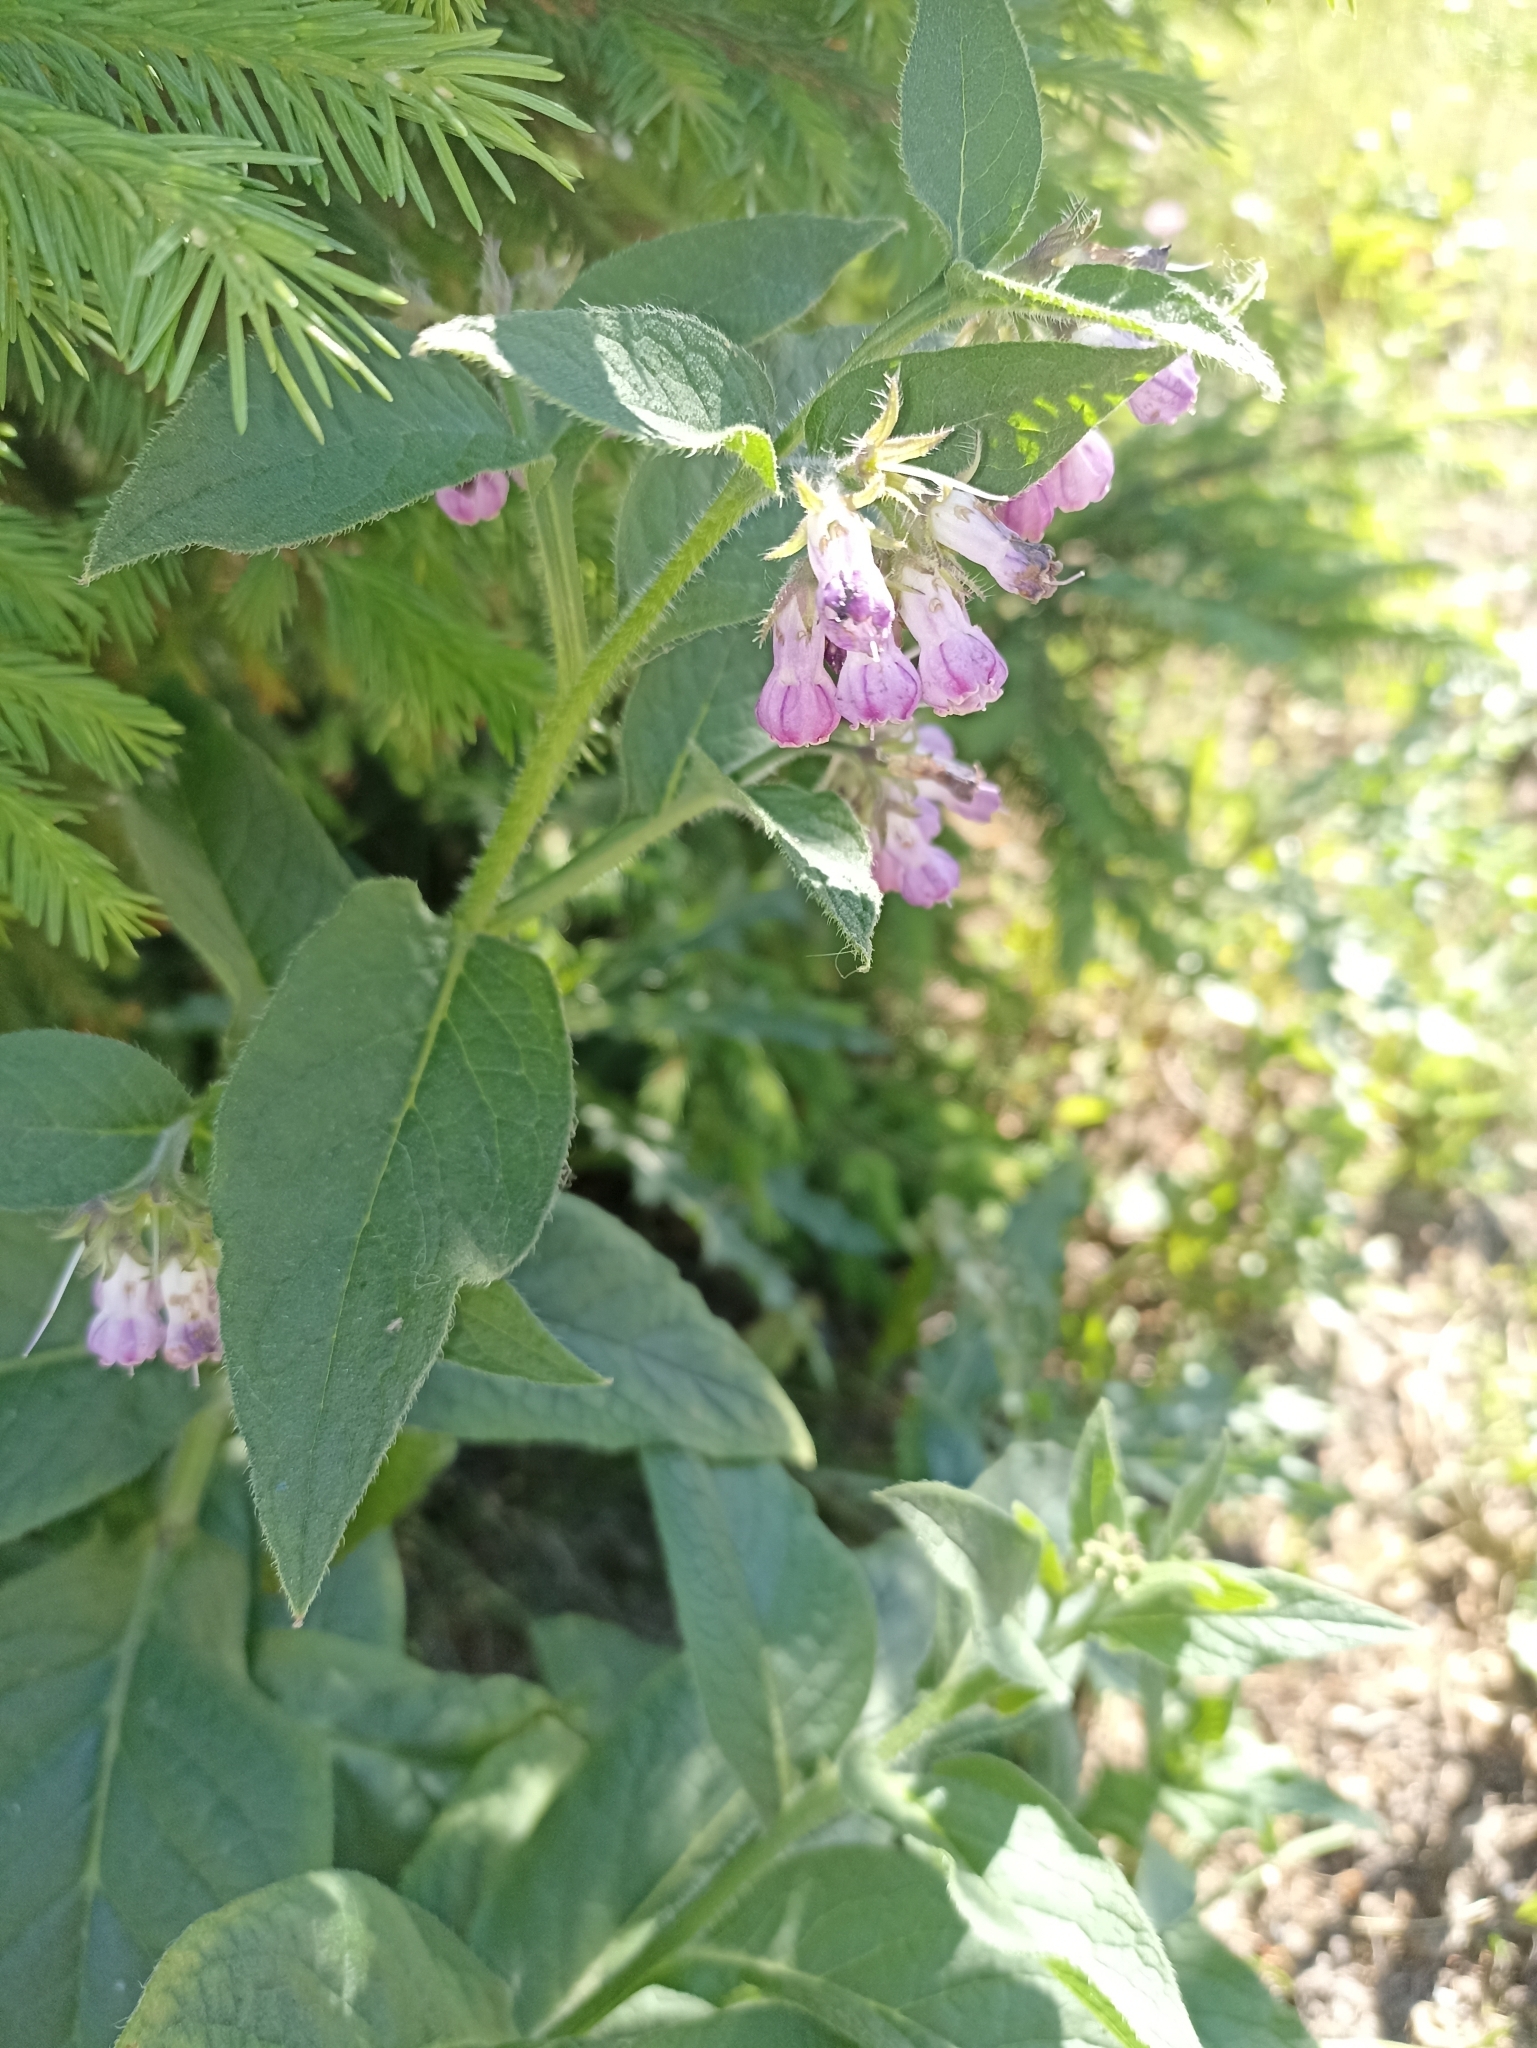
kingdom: Plantae
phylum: Tracheophyta
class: Magnoliopsida
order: Boraginales
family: Boraginaceae
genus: Symphytum
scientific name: Symphytum officinale
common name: Common comfrey
